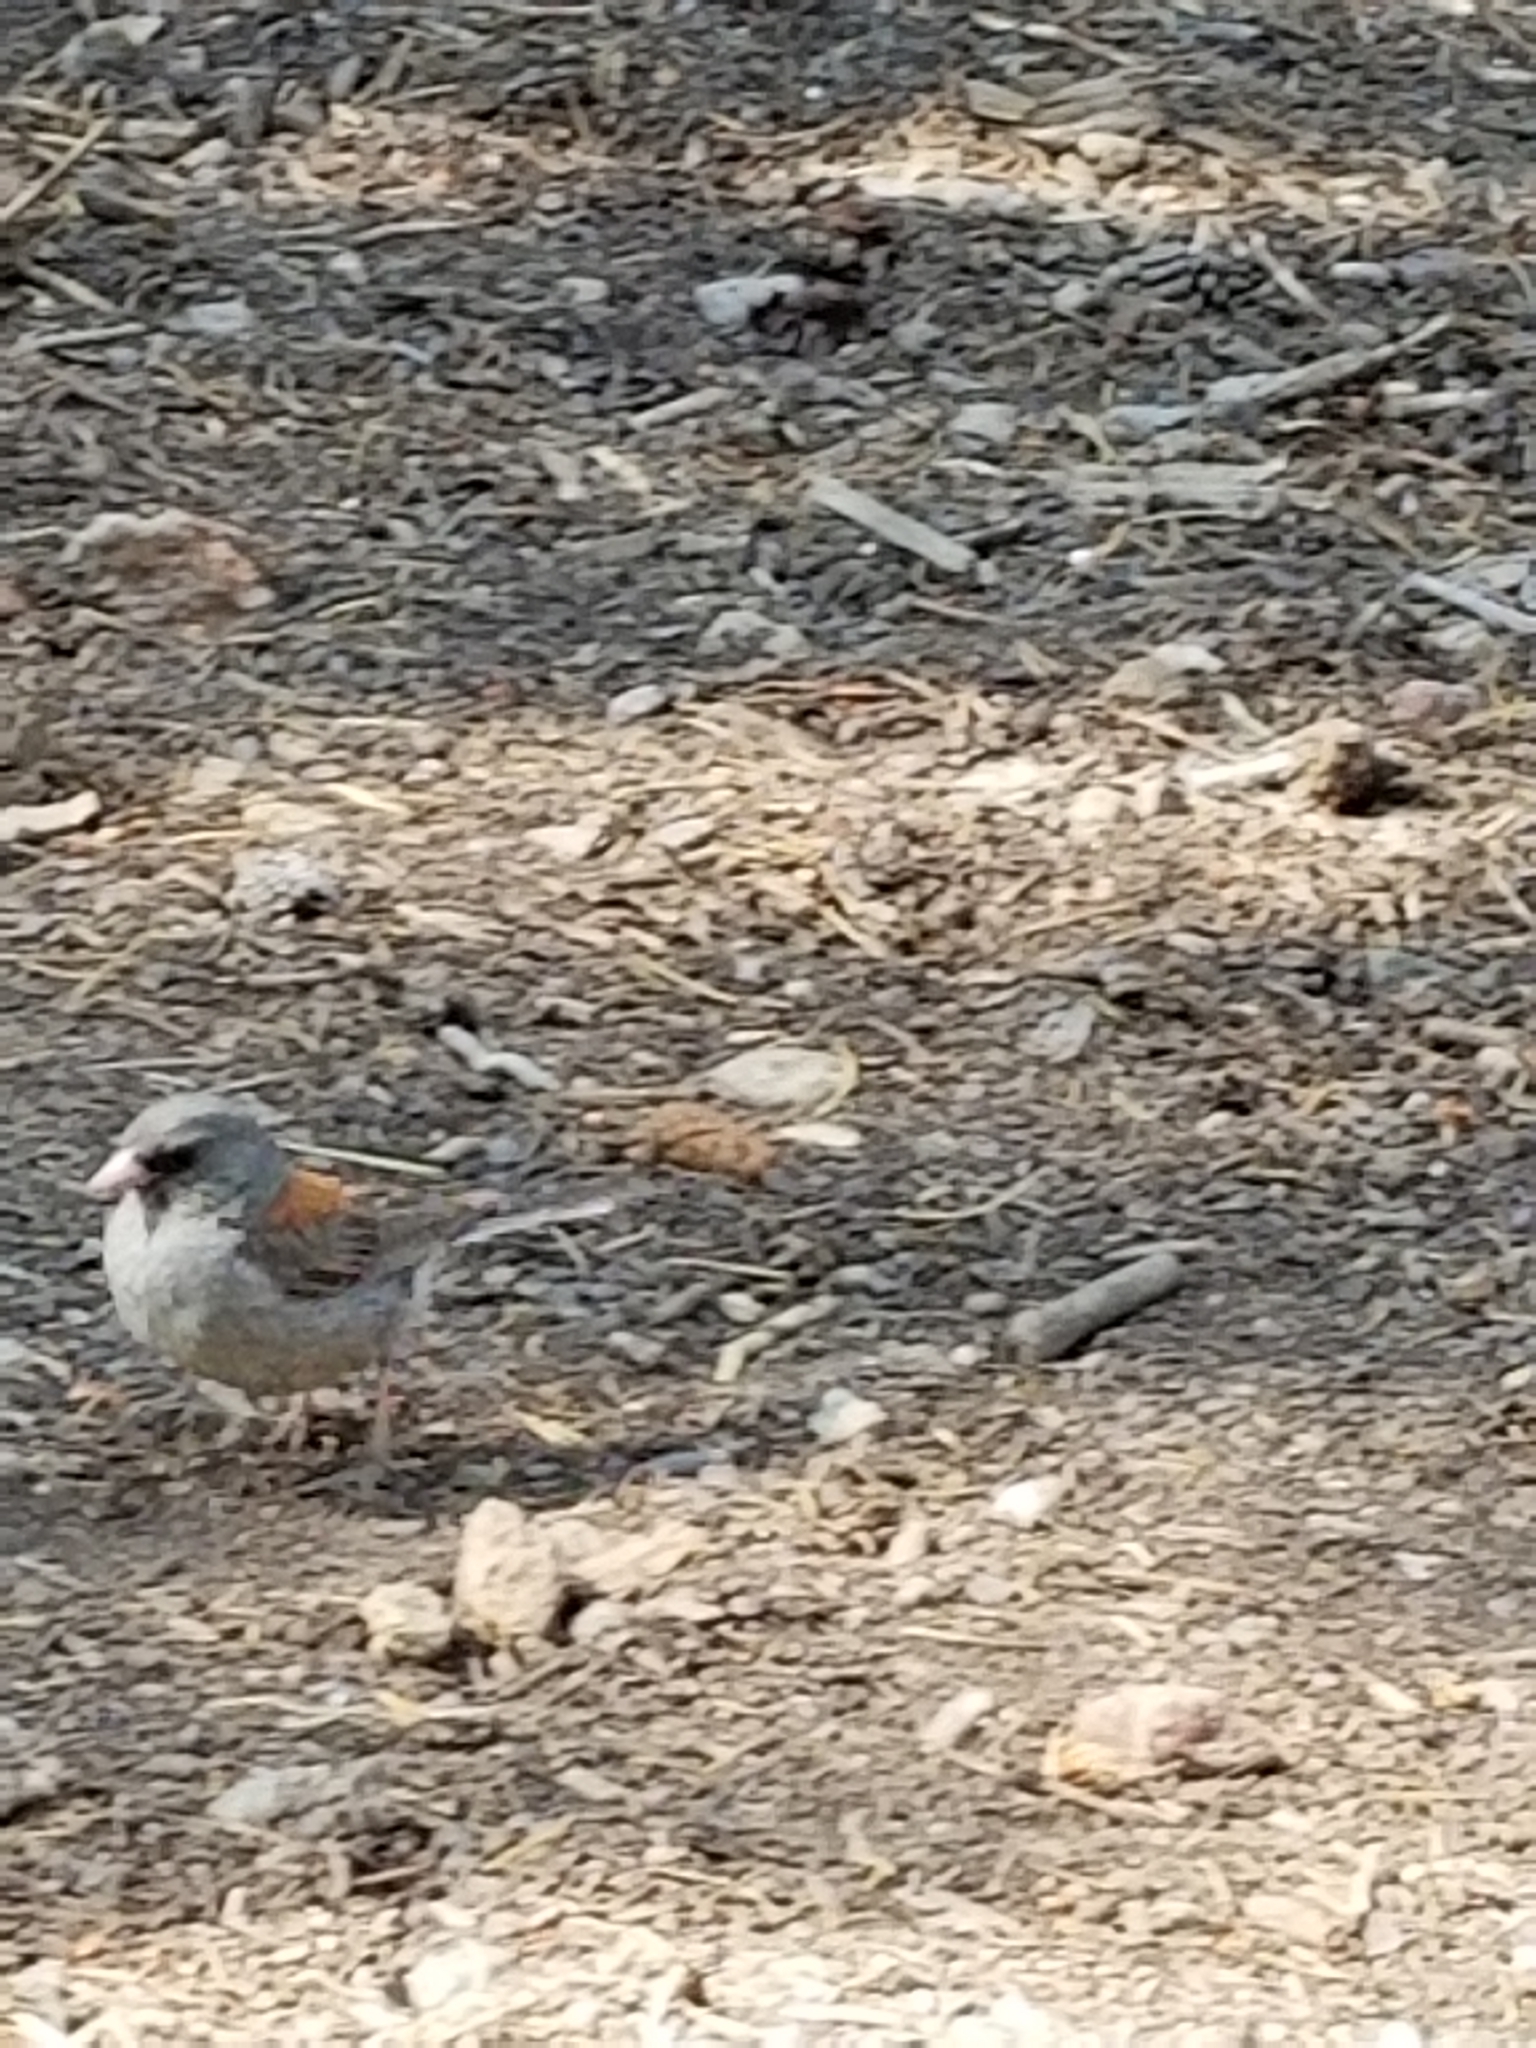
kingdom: Animalia
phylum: Chordata
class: Aves
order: Passeriformes
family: Passerellidae
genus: Junco
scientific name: Junco hyemalis
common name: Dark-eyed junco
